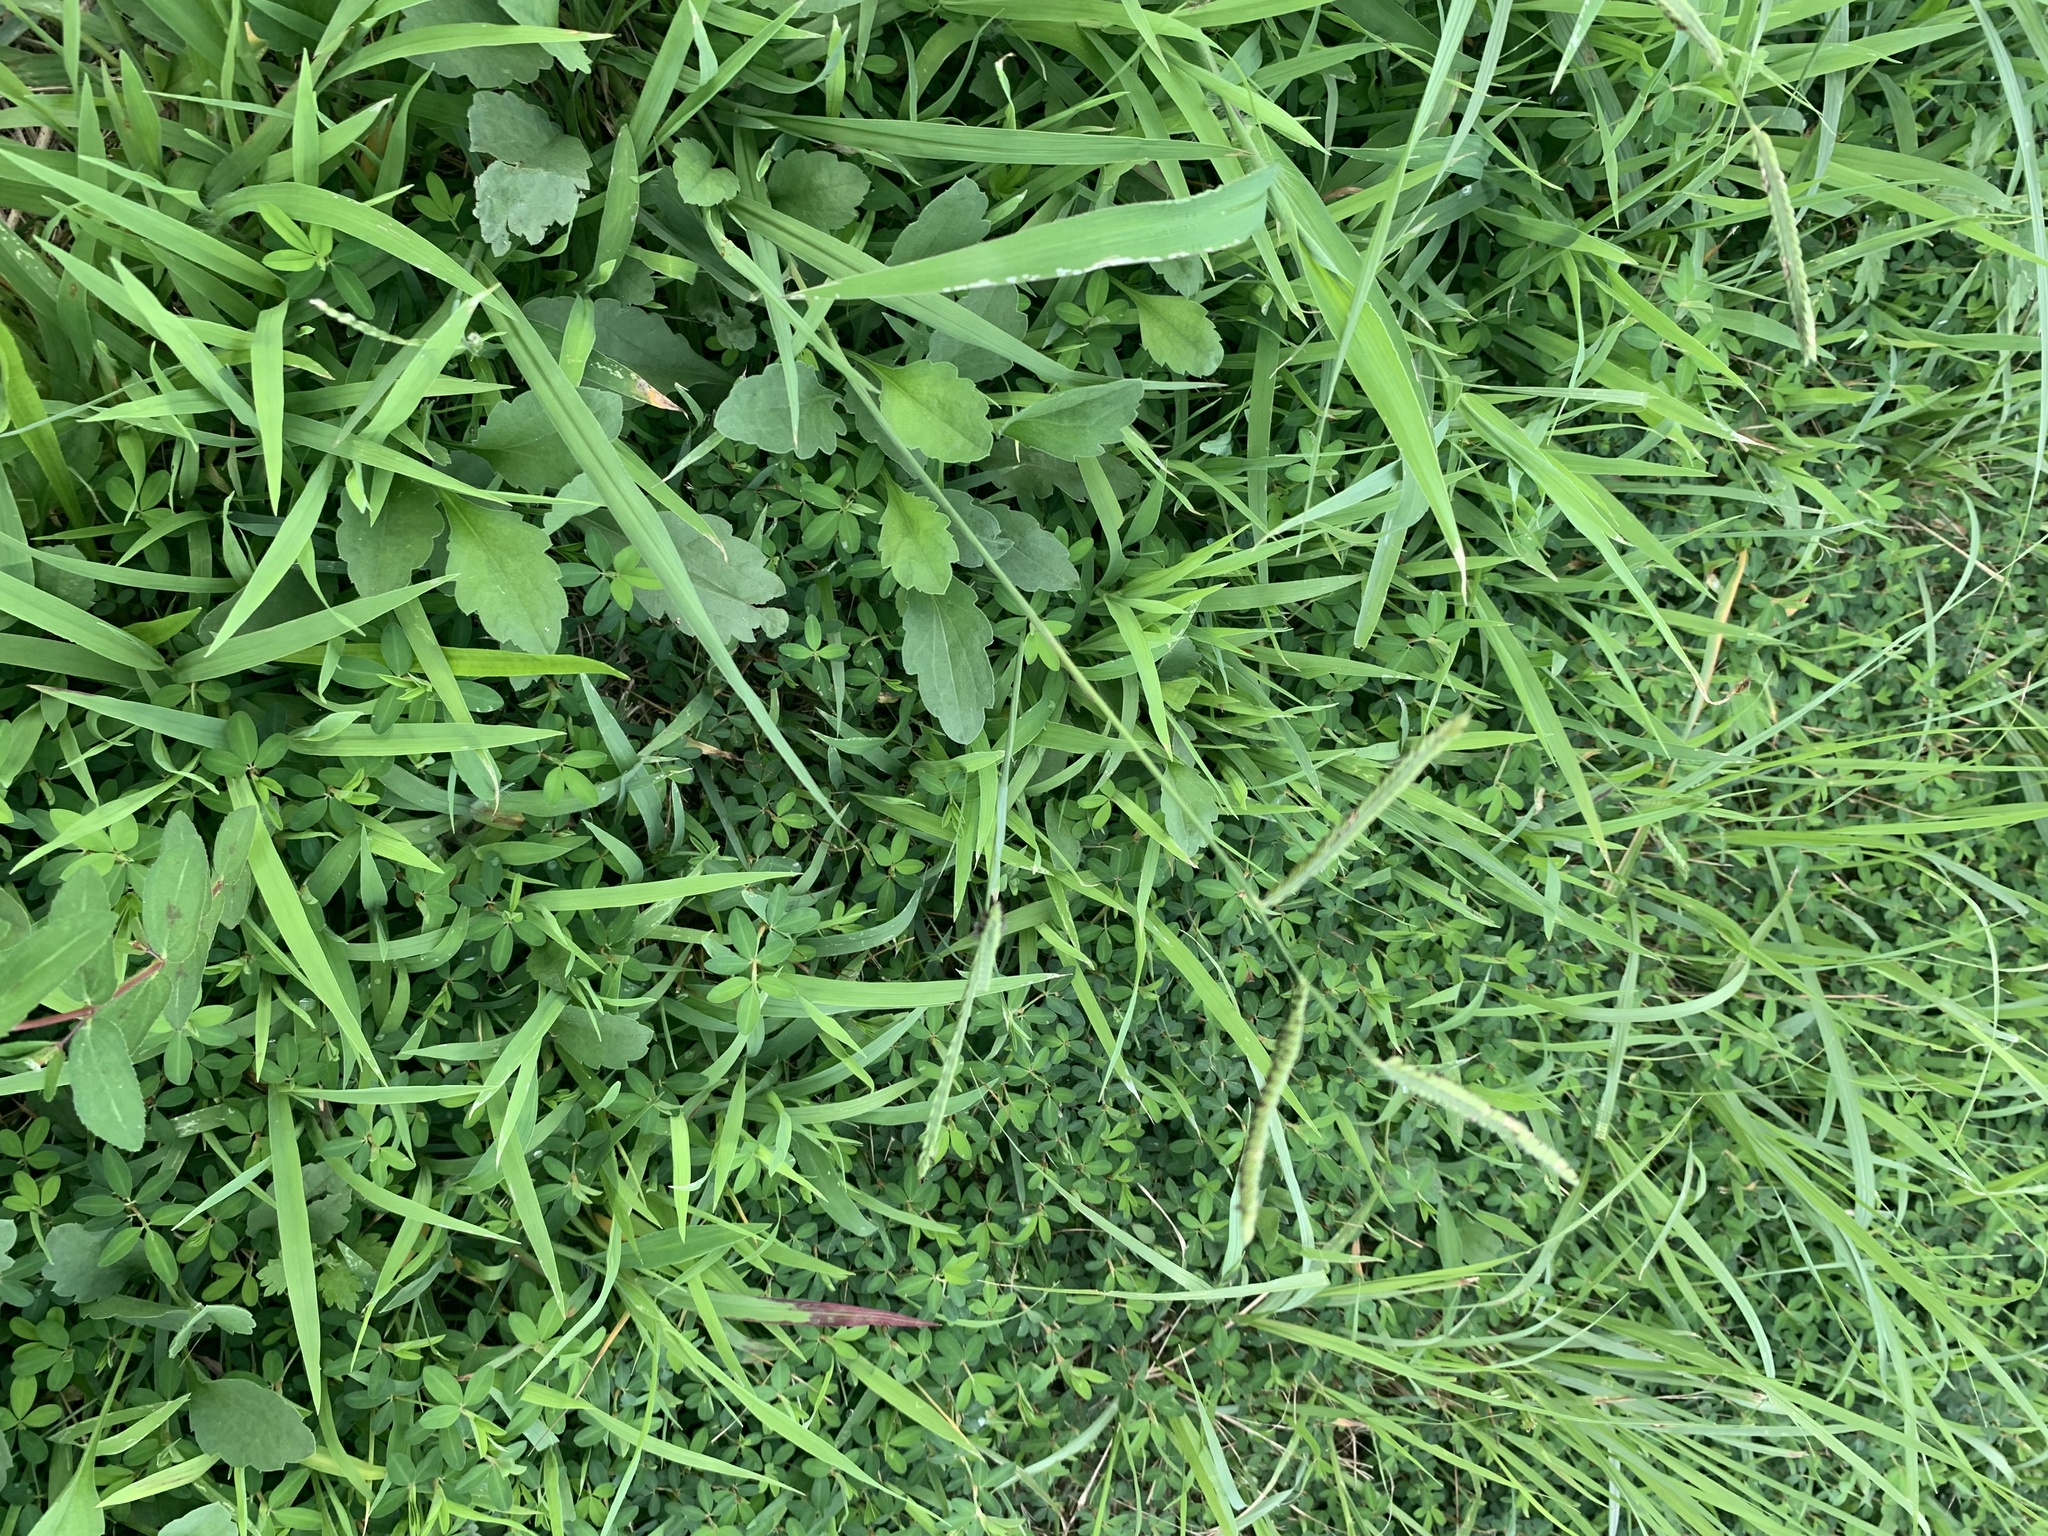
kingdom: Plantae
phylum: Tracheophyta
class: Liliopsida
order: Poales
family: Poaceae
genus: Paspalum
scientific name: Paspalum dilatatum
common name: Dallisgrass
